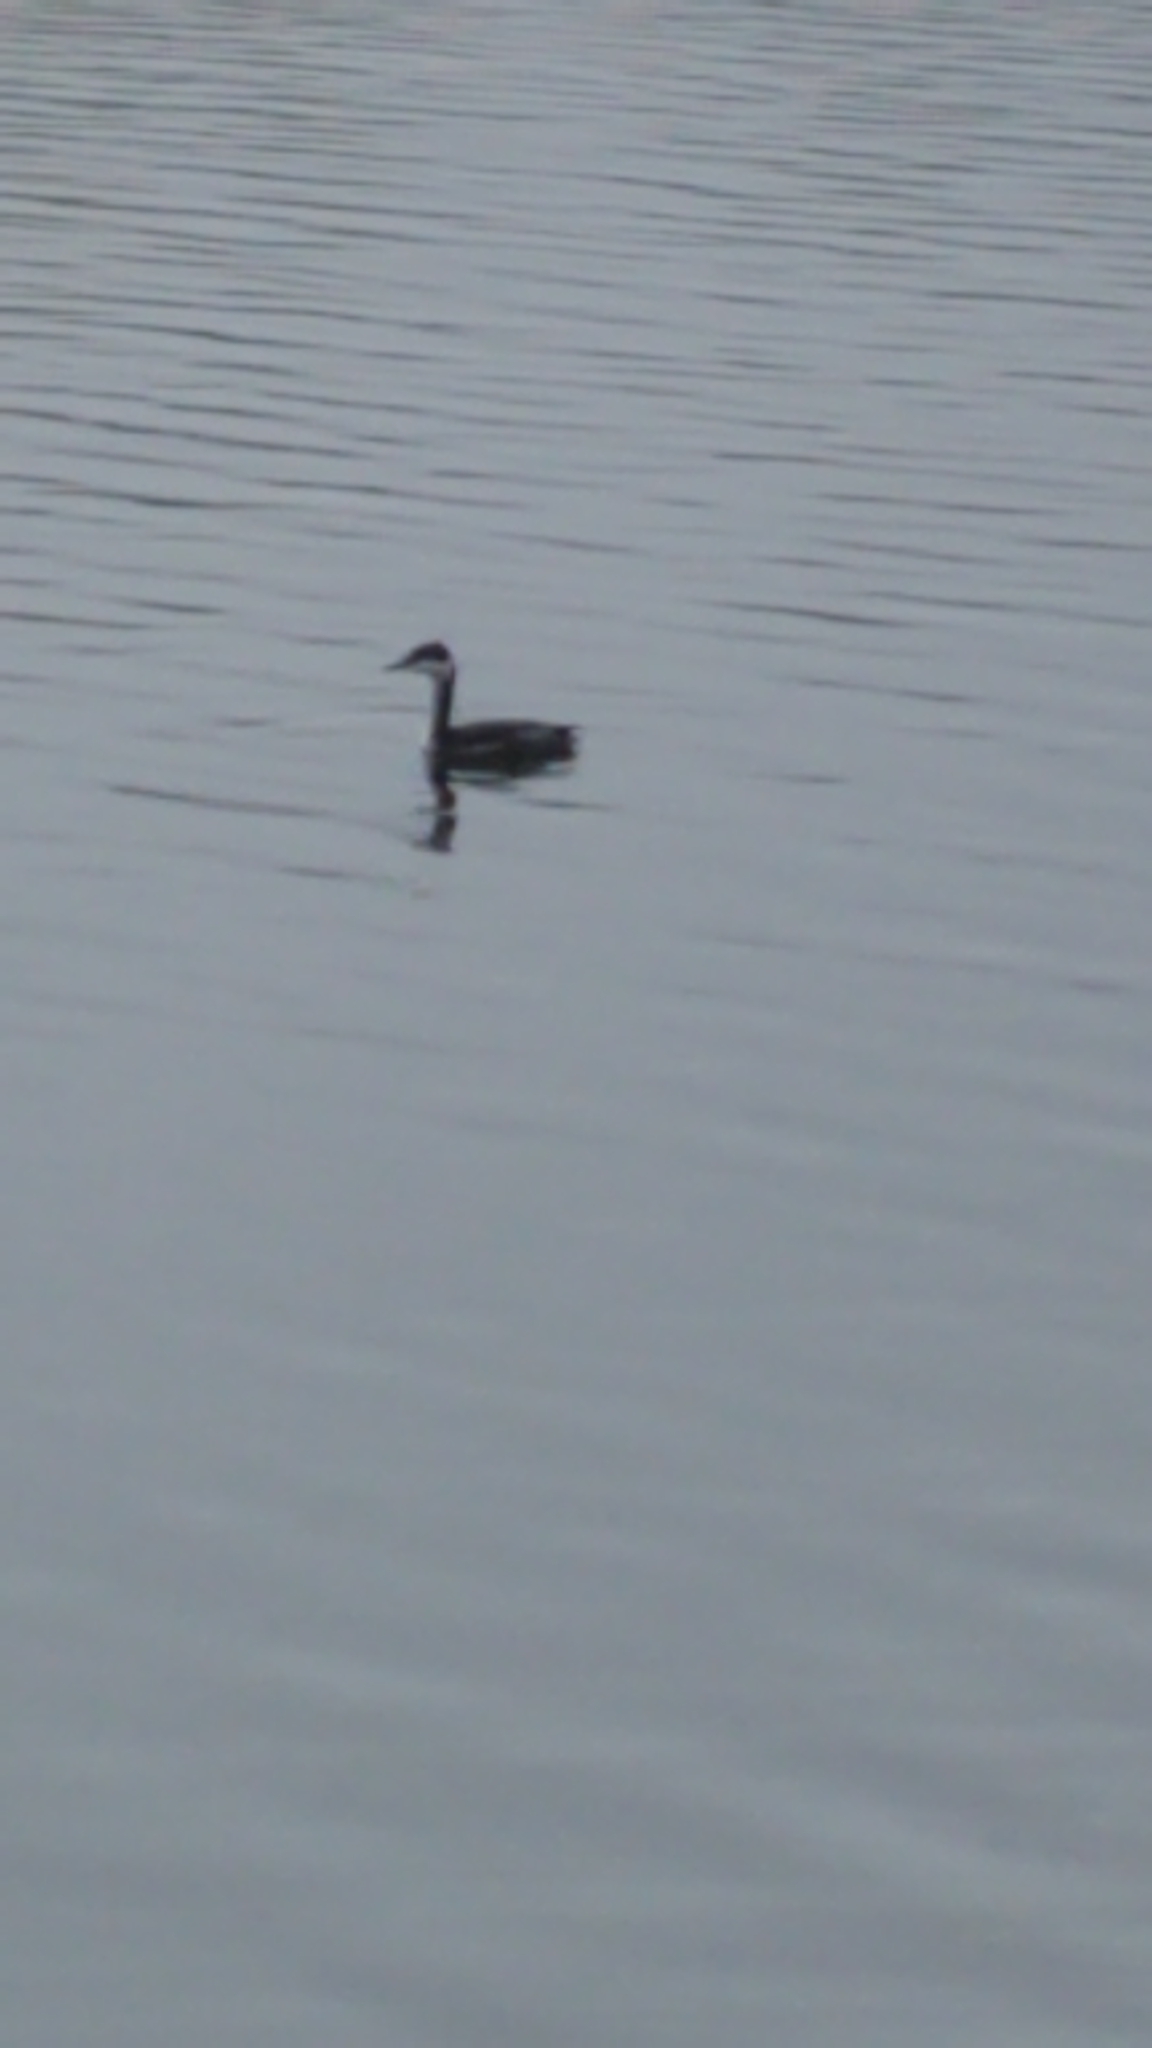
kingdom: Animalia
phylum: Chordata
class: Aves
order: Podicipediformes
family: Podicipedidae
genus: Podiceps
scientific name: Podiceps auritus
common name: Horned grebe
